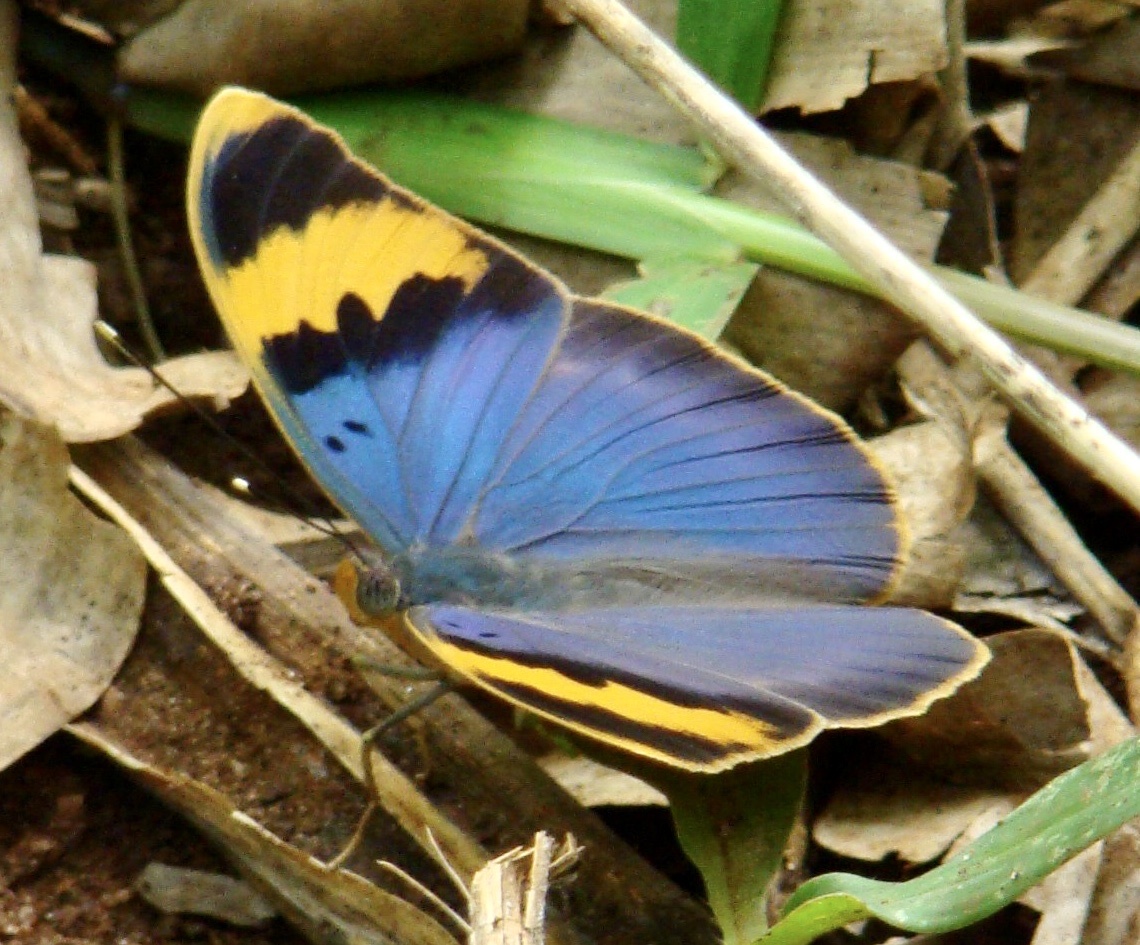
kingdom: Animalia
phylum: Arthropoda
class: Insecta
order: Lepidoptera
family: Nymphalidae
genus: Euphaedra
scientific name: Euphaedra neophron
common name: Gold-banded forester
